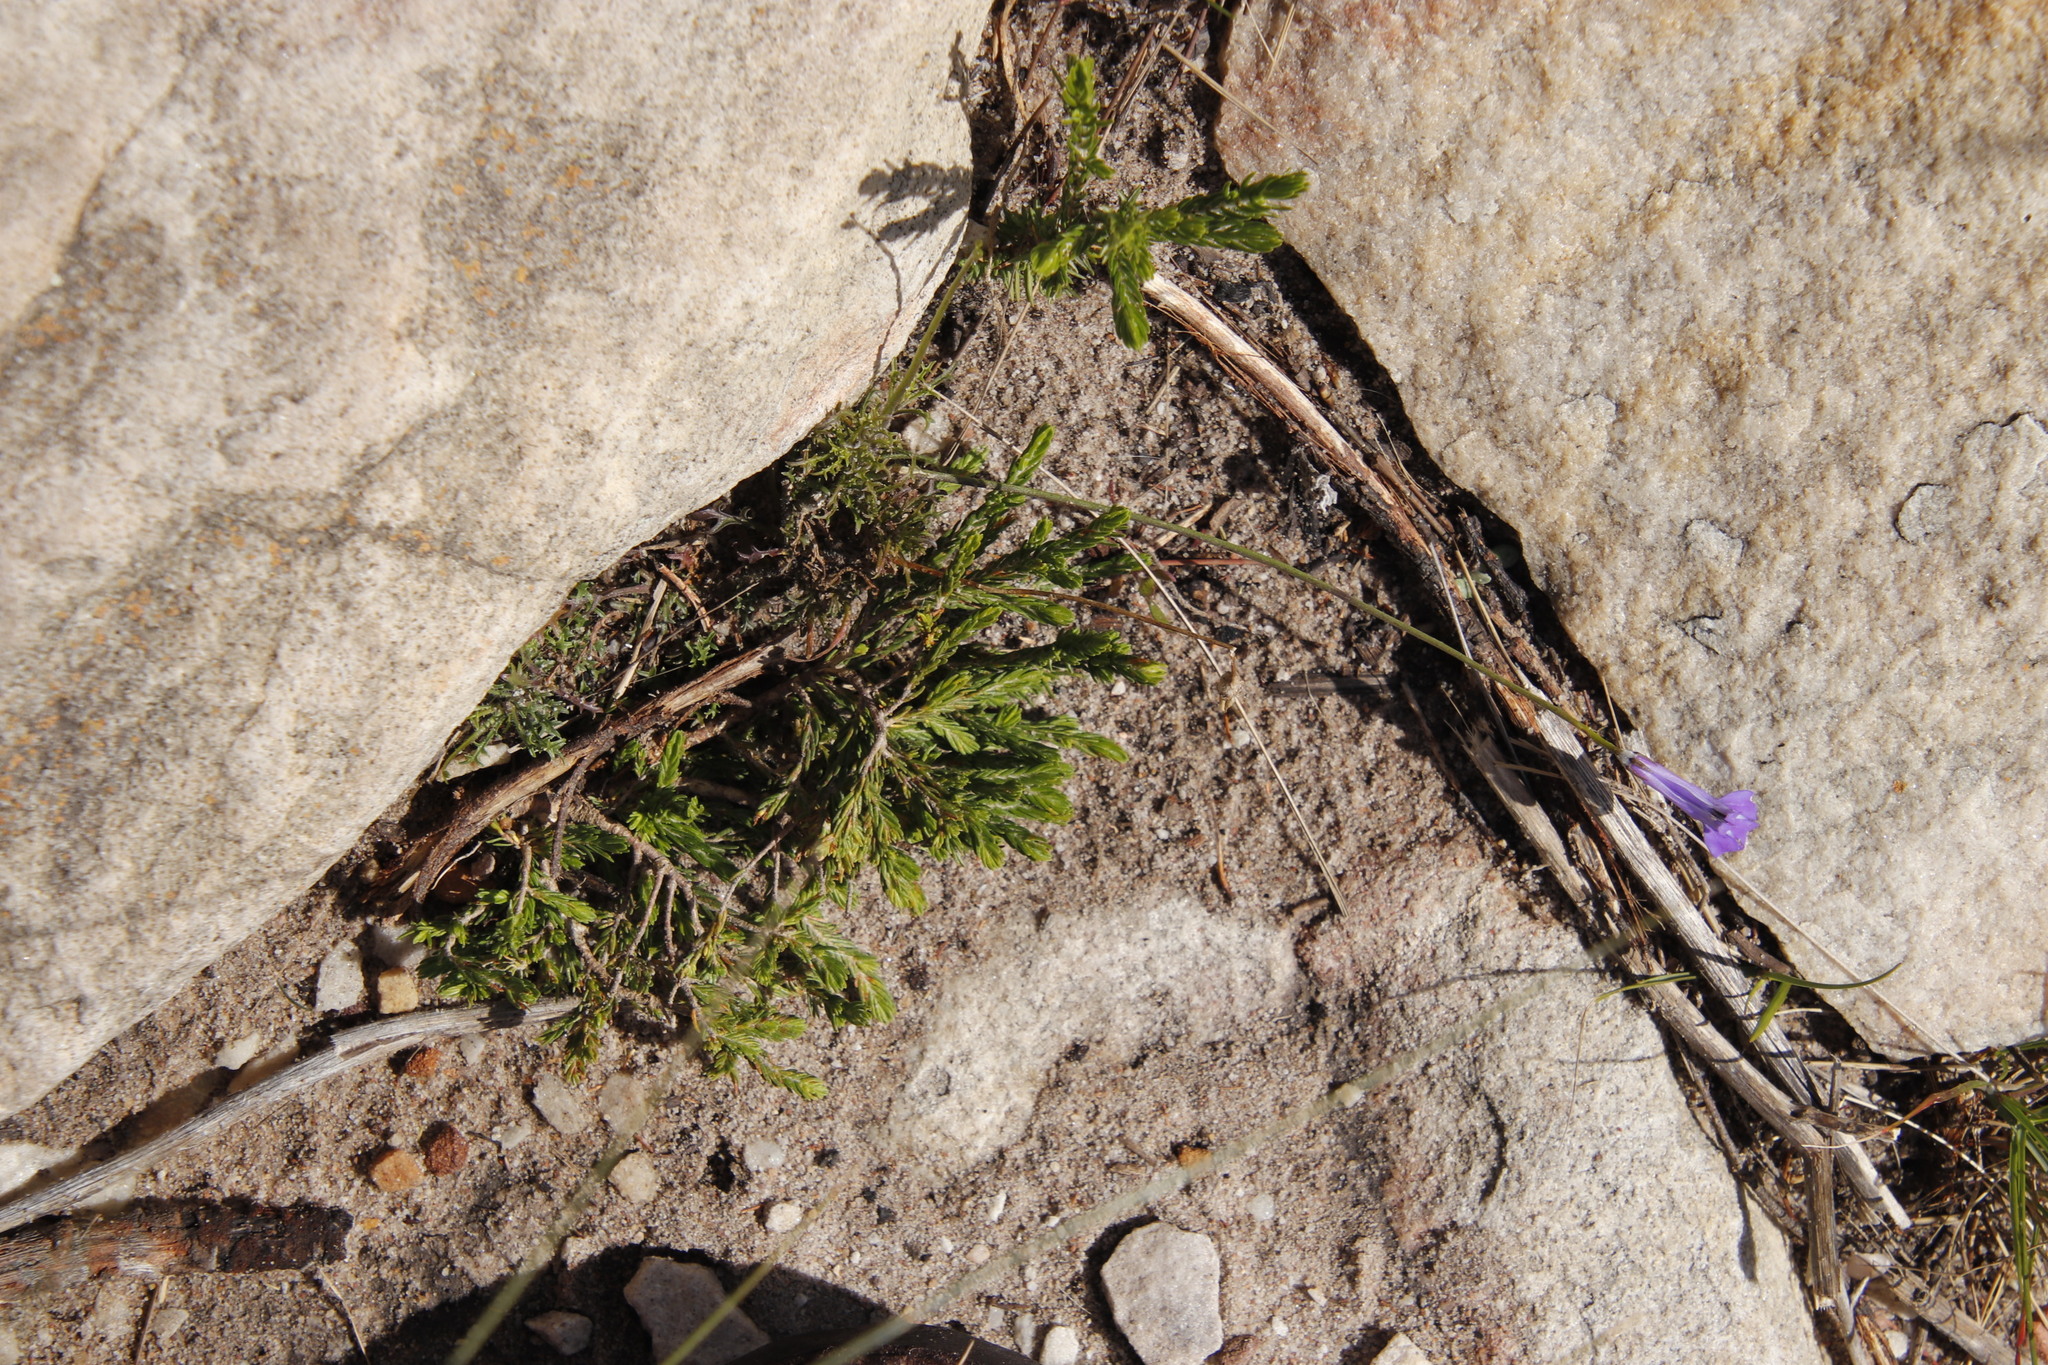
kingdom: Plantae
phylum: Tracheophyta
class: Magnoliopsida
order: Asterales
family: Campanulaceae
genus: Lobelia
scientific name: Lobelia coronopifolia
